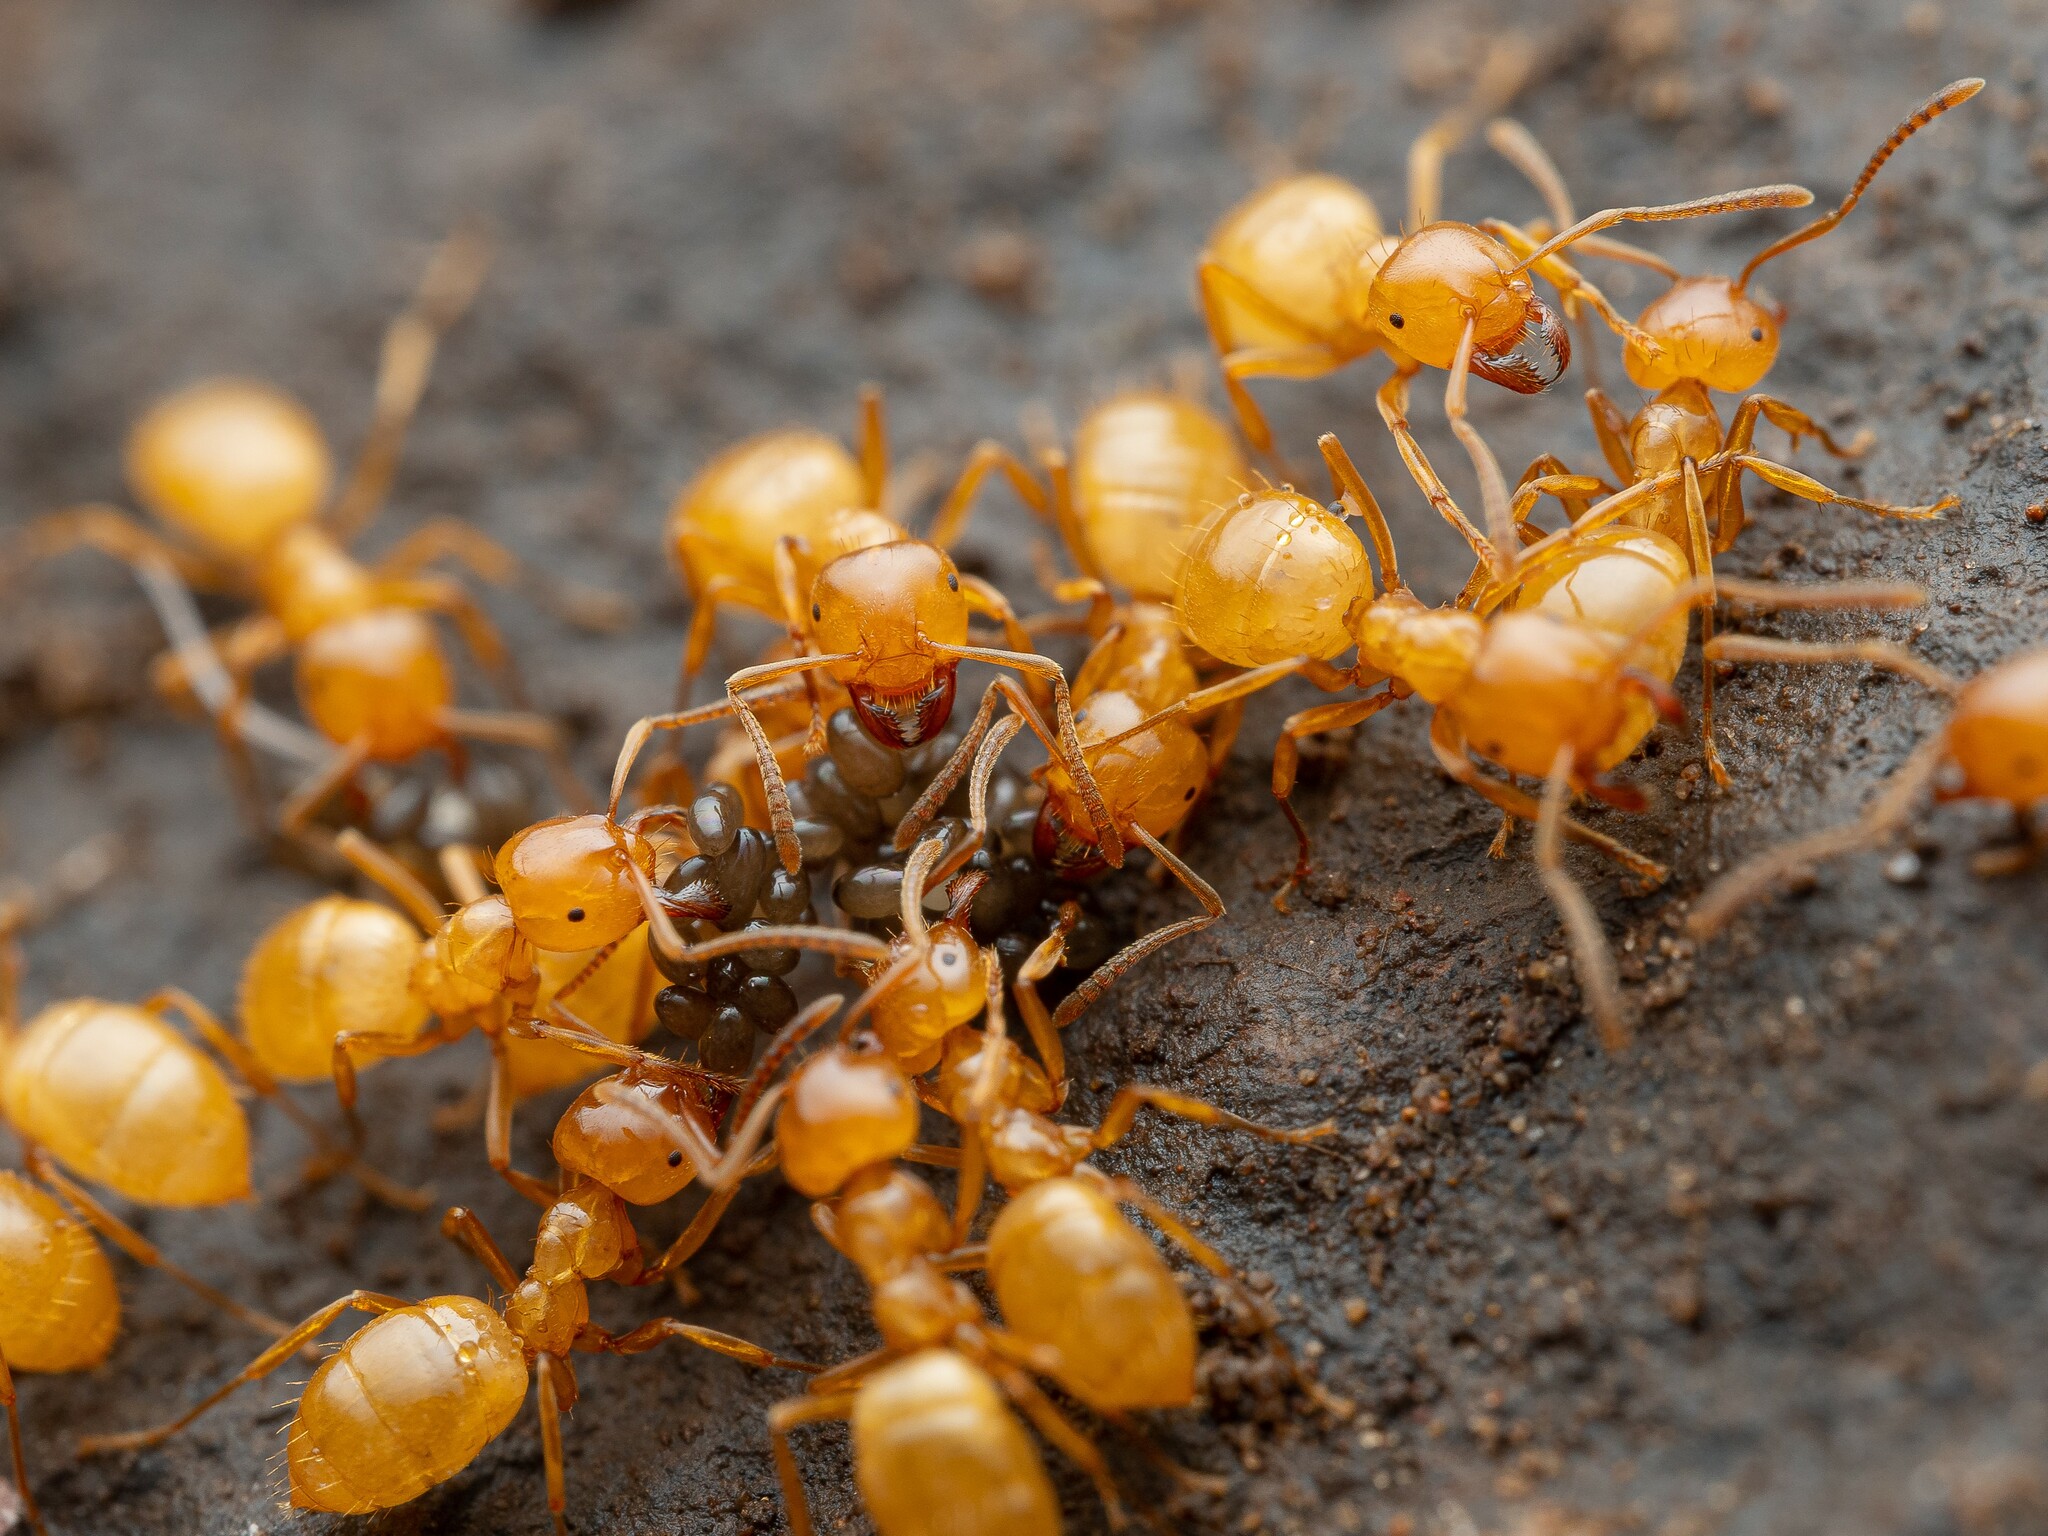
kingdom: Animalia
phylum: Arthropoda
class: Insecta
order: Hymenoptera
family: Formicidae
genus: Lasius
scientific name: Lasius arizonicus
